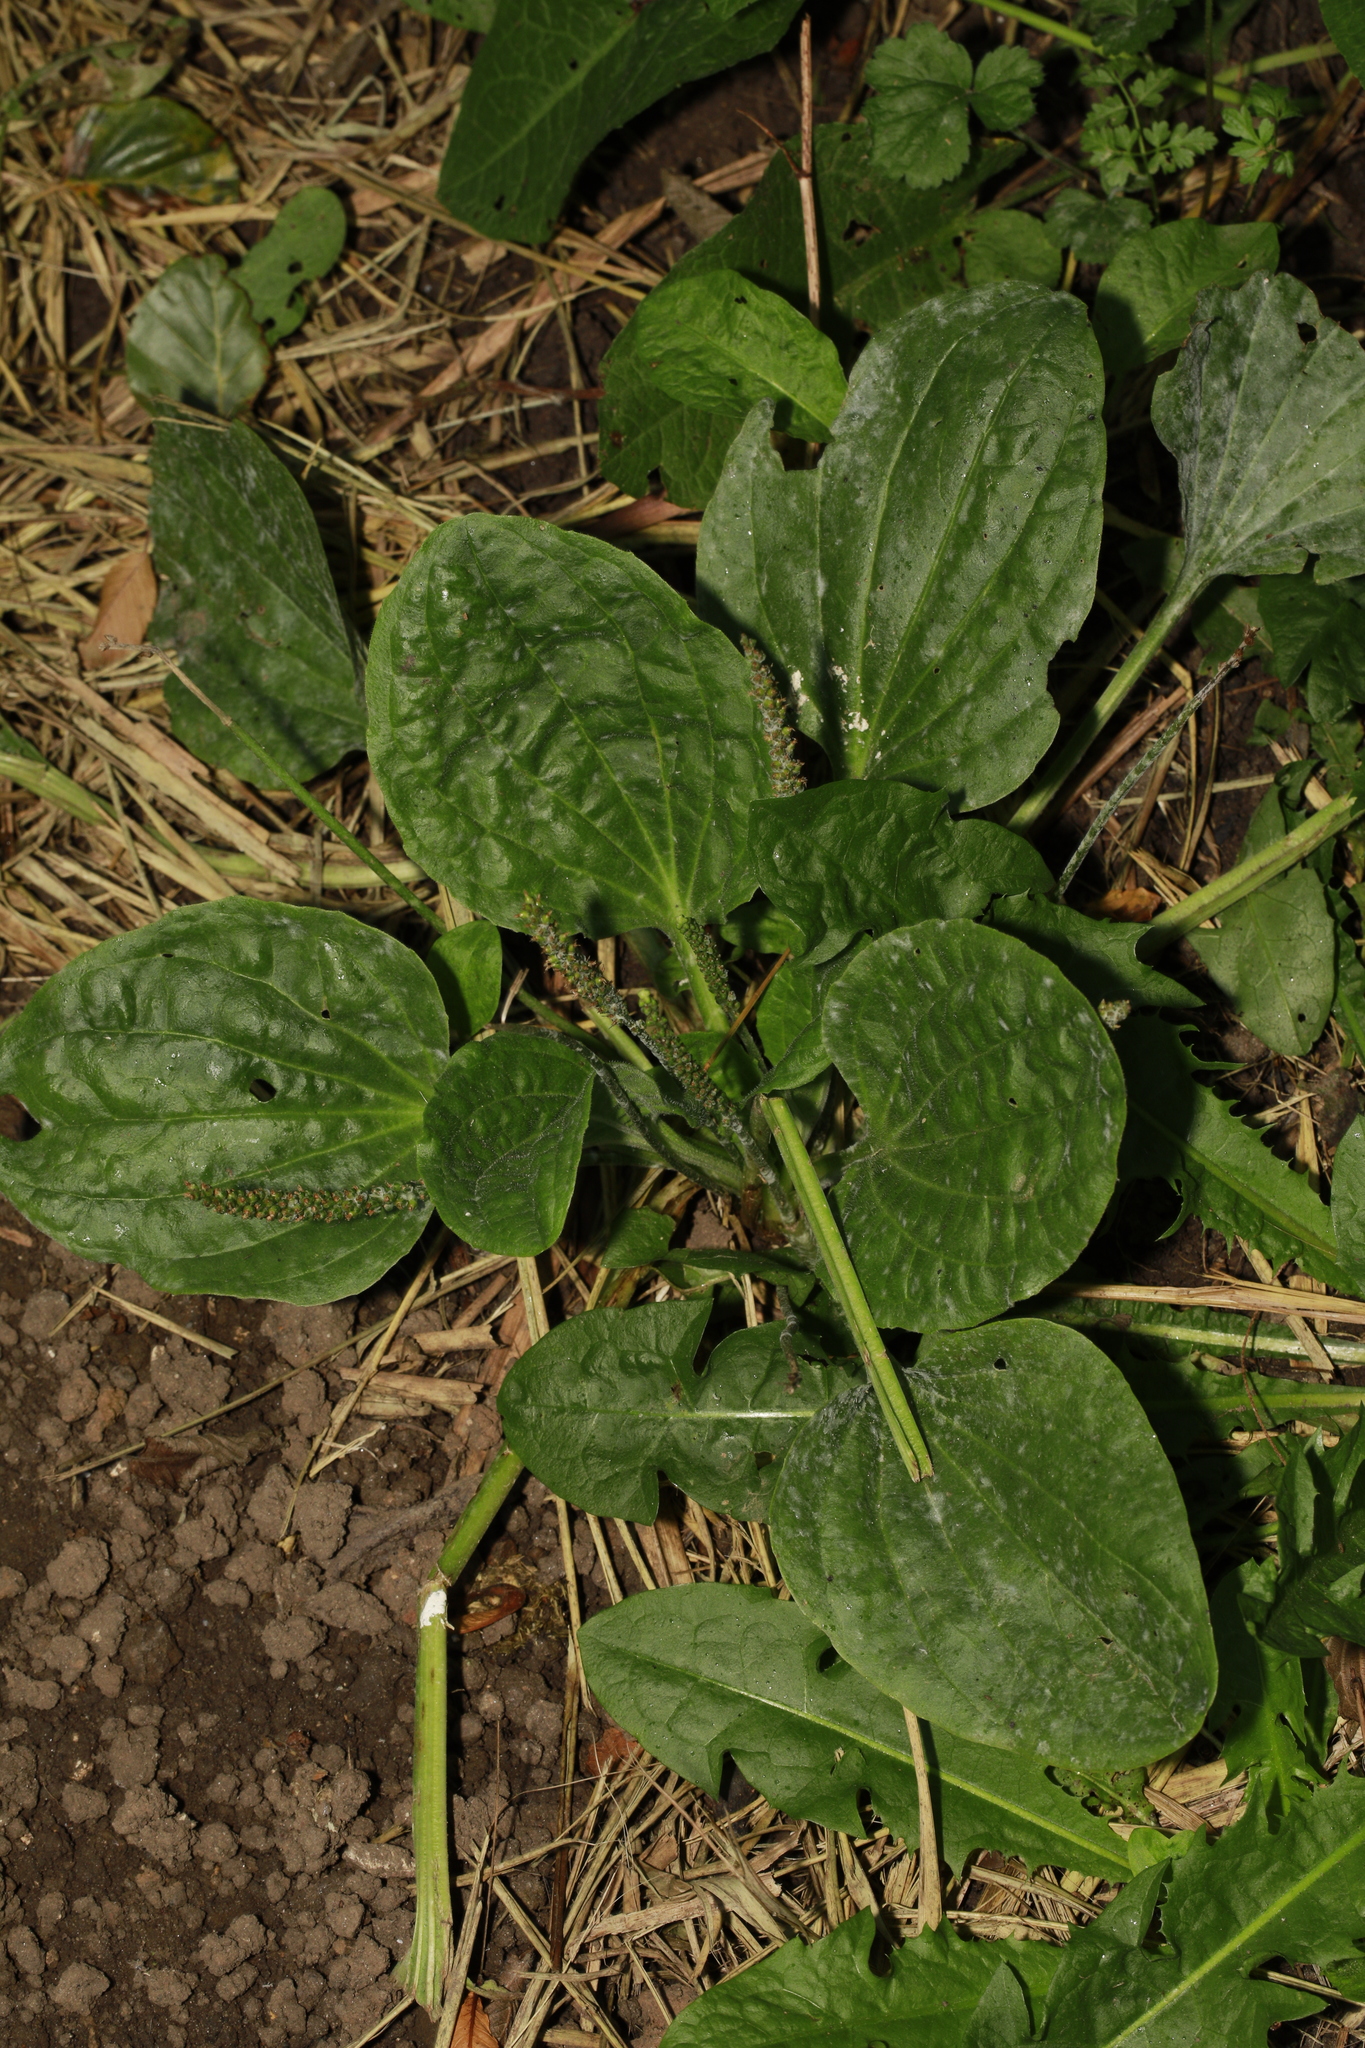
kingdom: Plantae
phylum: Tracheophyta
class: Magnoliopsida
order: Lamiales
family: Plantaginaceae
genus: Plantago
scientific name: Plantago major
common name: Common plantain
